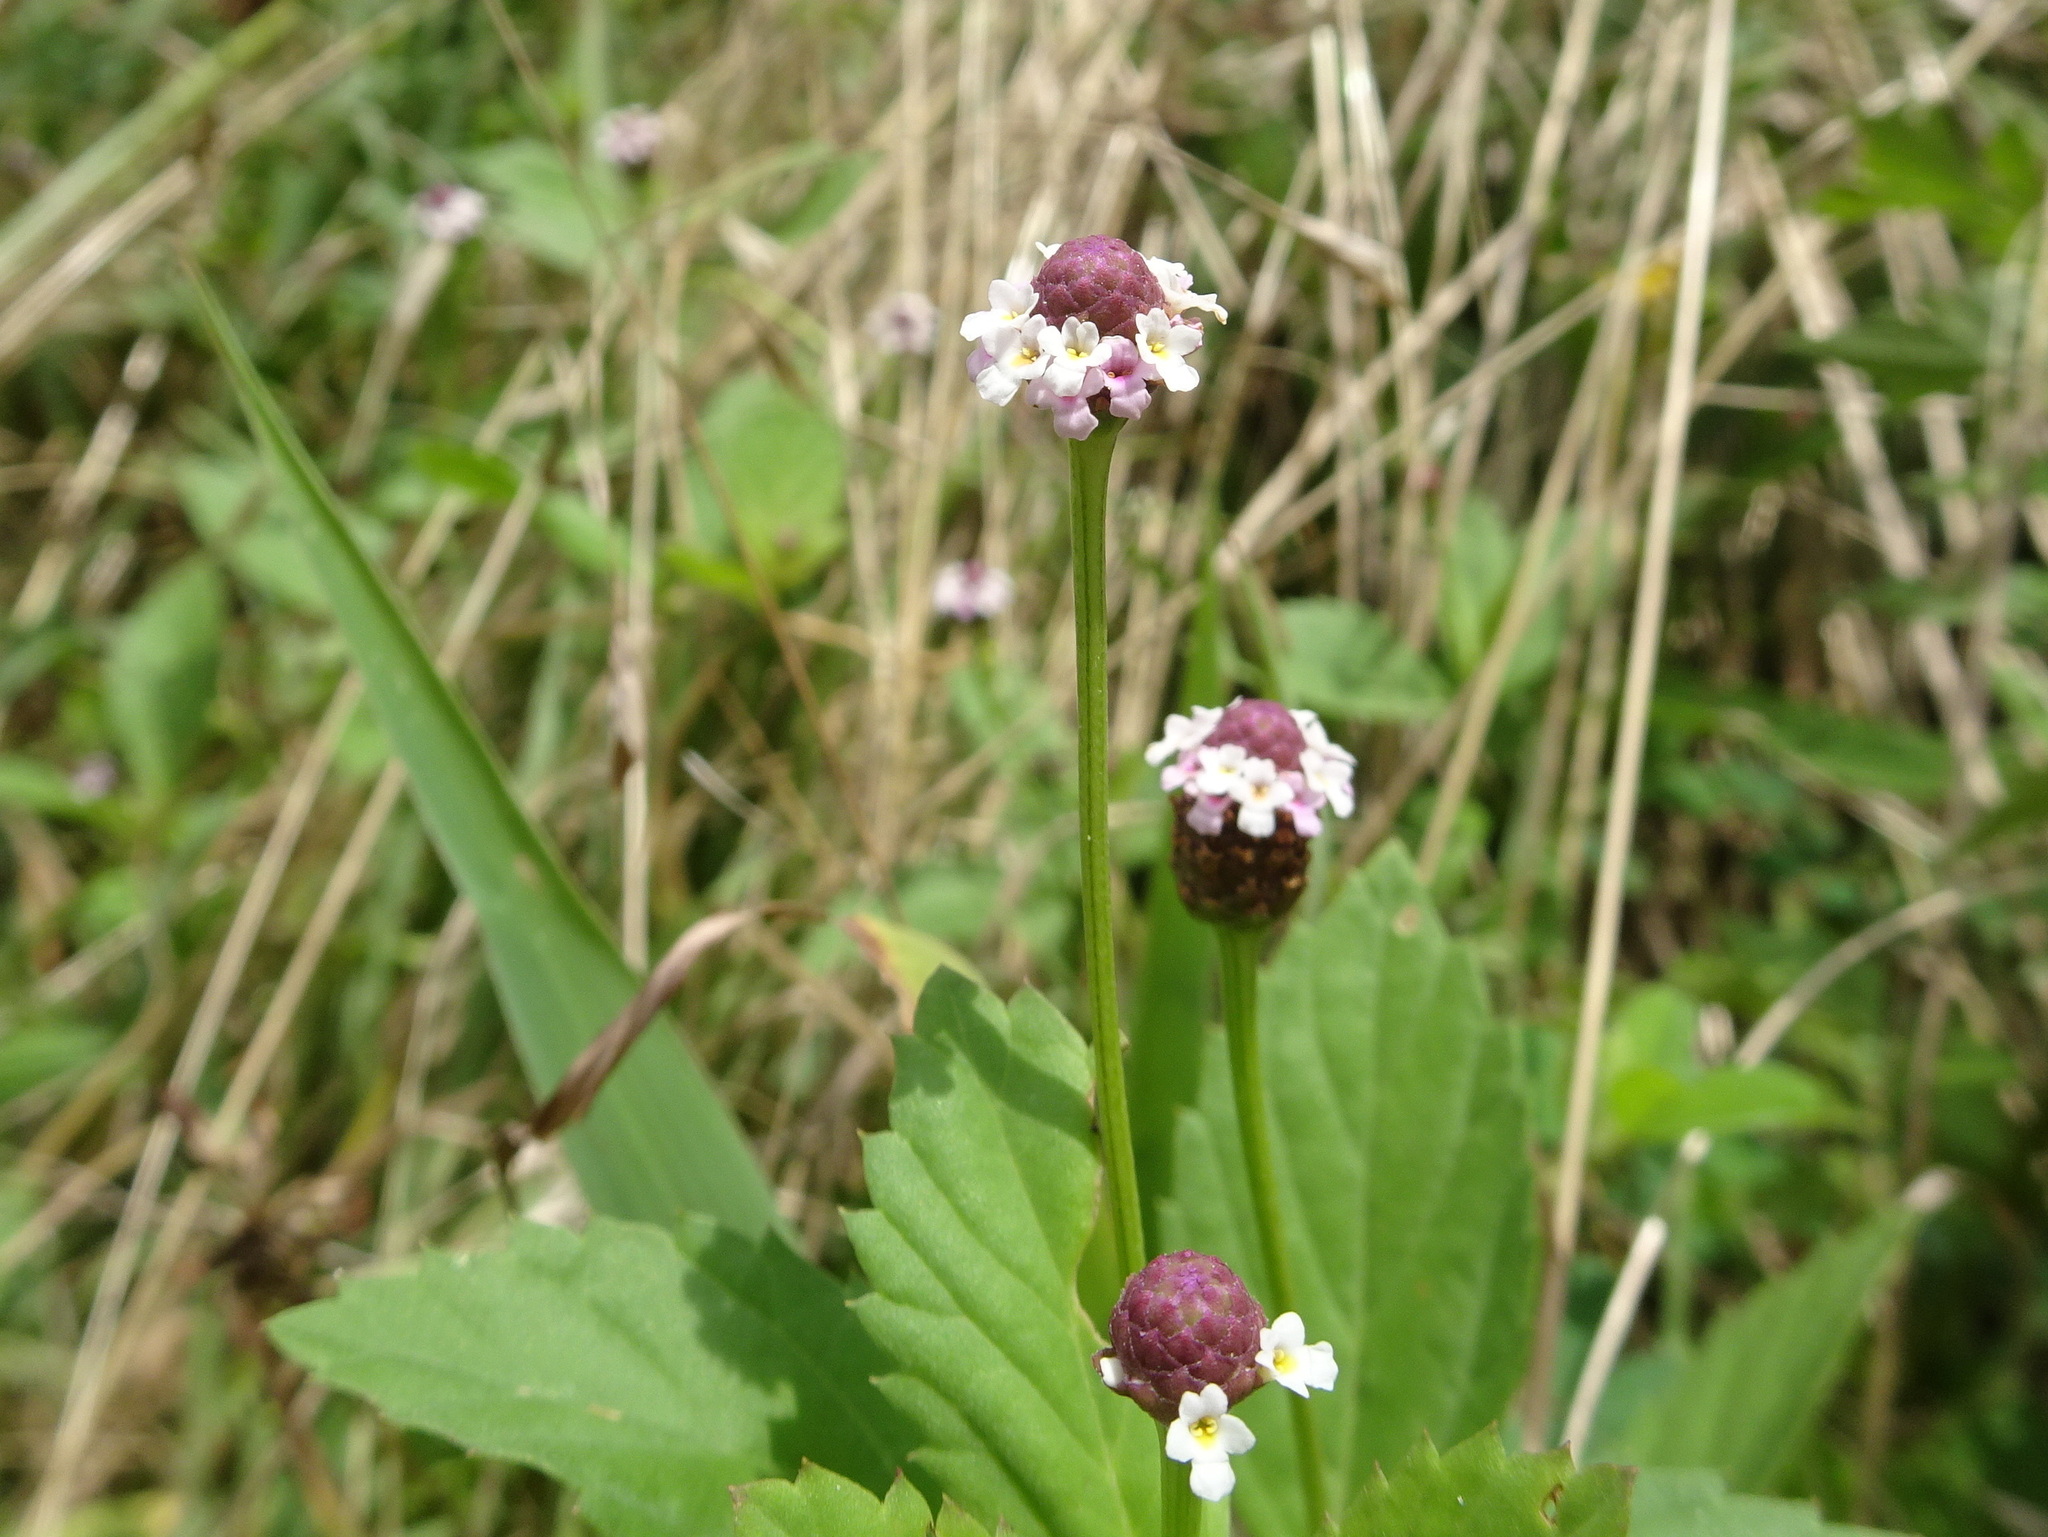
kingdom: Plantae
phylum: Tracheophyta
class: Magnoliopsida
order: Lamiales
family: Verbenaceae
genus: Phyla
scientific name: Phyla lanceolata
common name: Northern fogfruit
